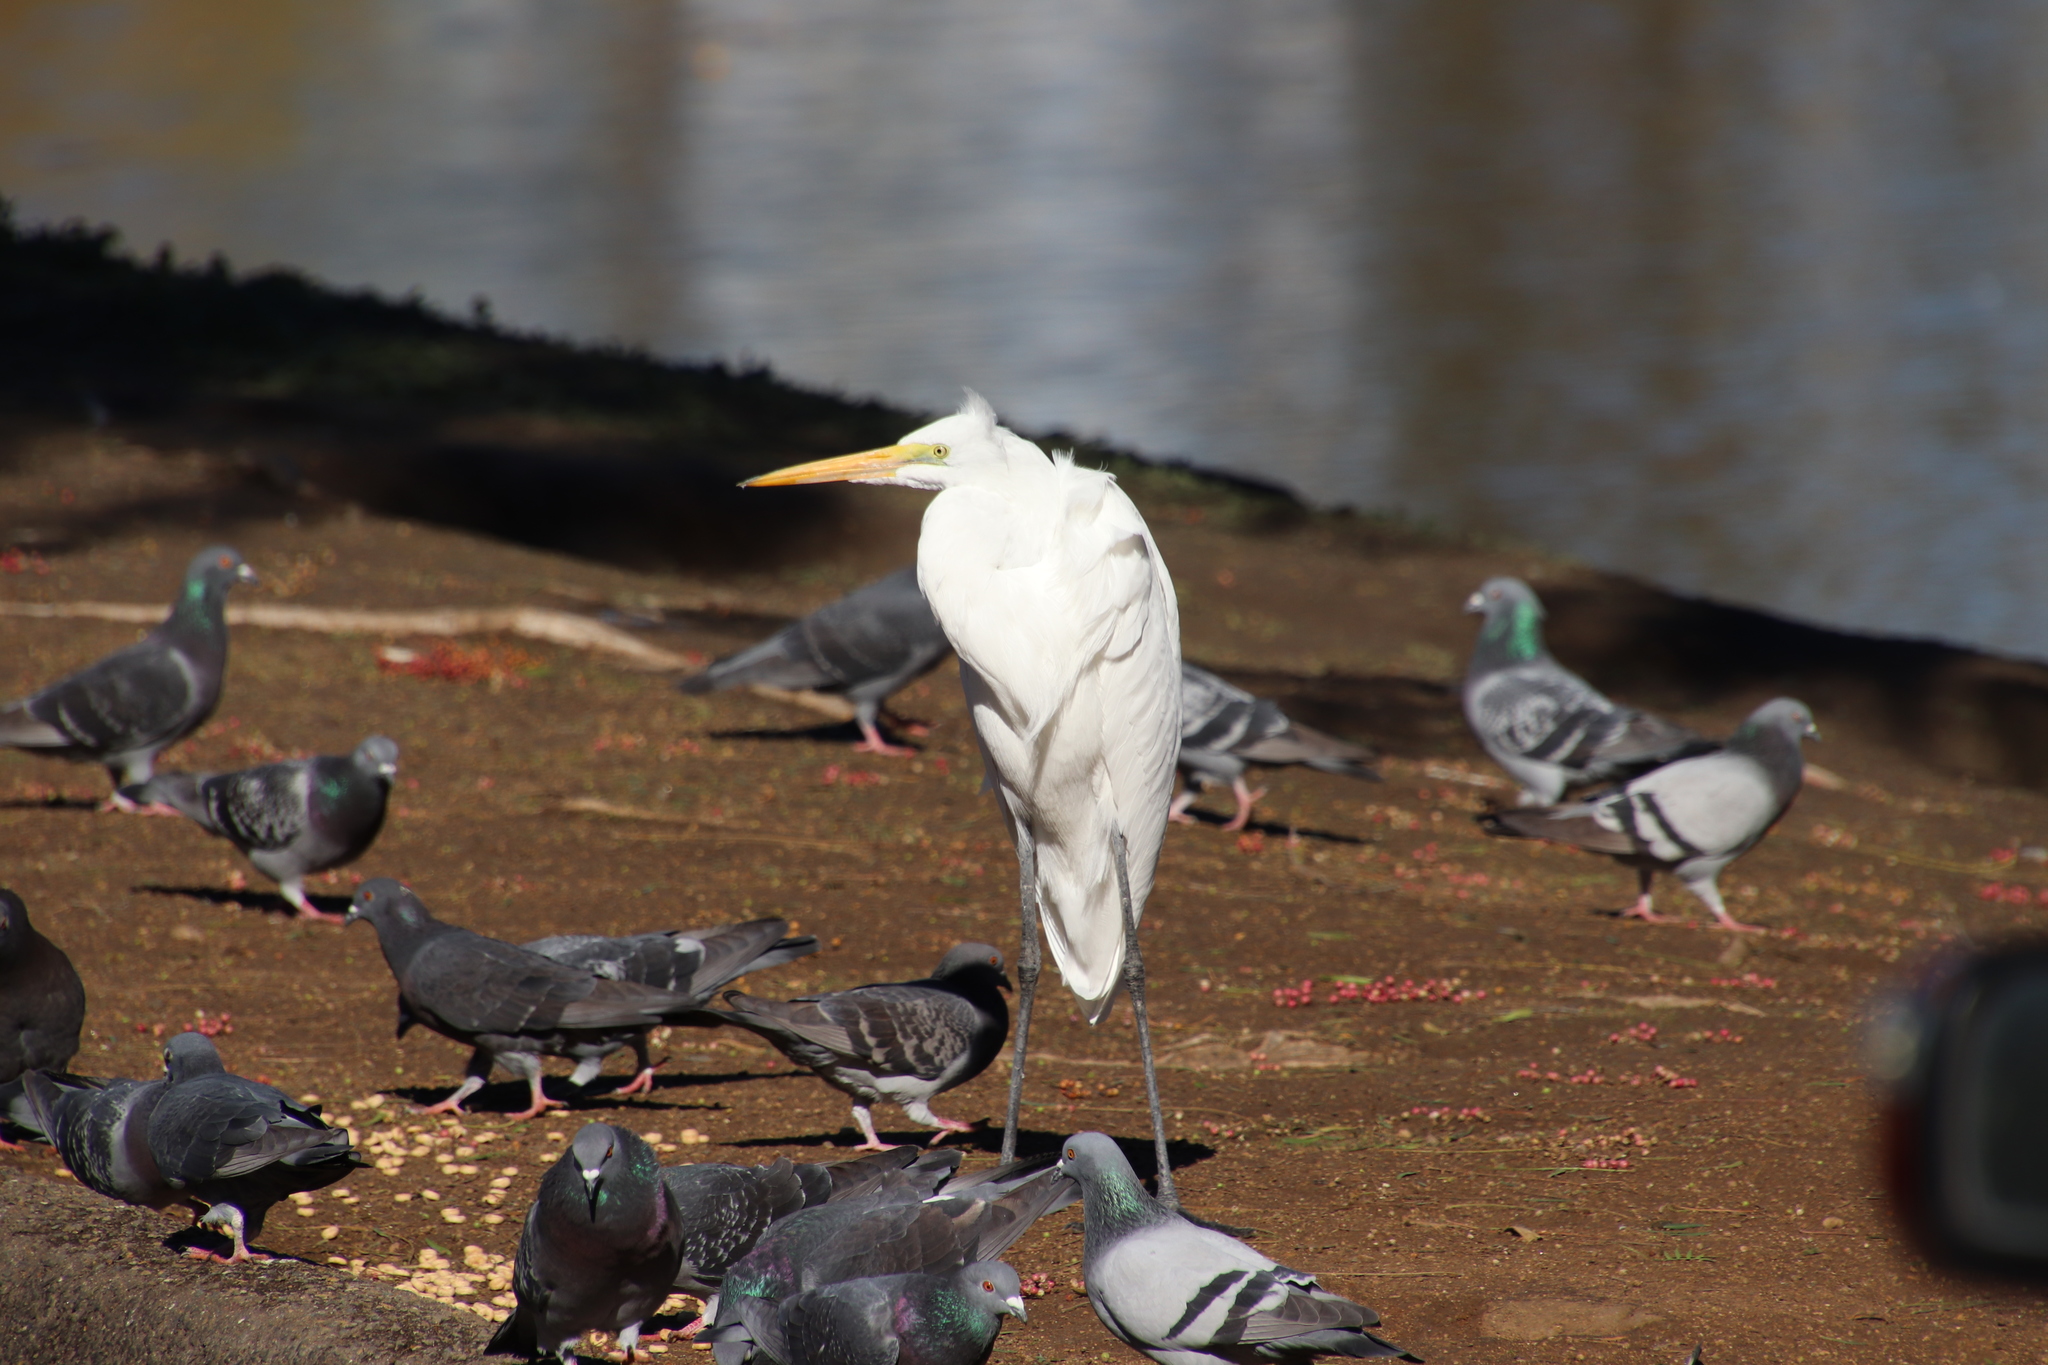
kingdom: Animalia
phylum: Chordata
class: Aves
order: Pelecaniformes
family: Ardeidae
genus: Ardea
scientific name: Ardea alba
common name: Great egret
